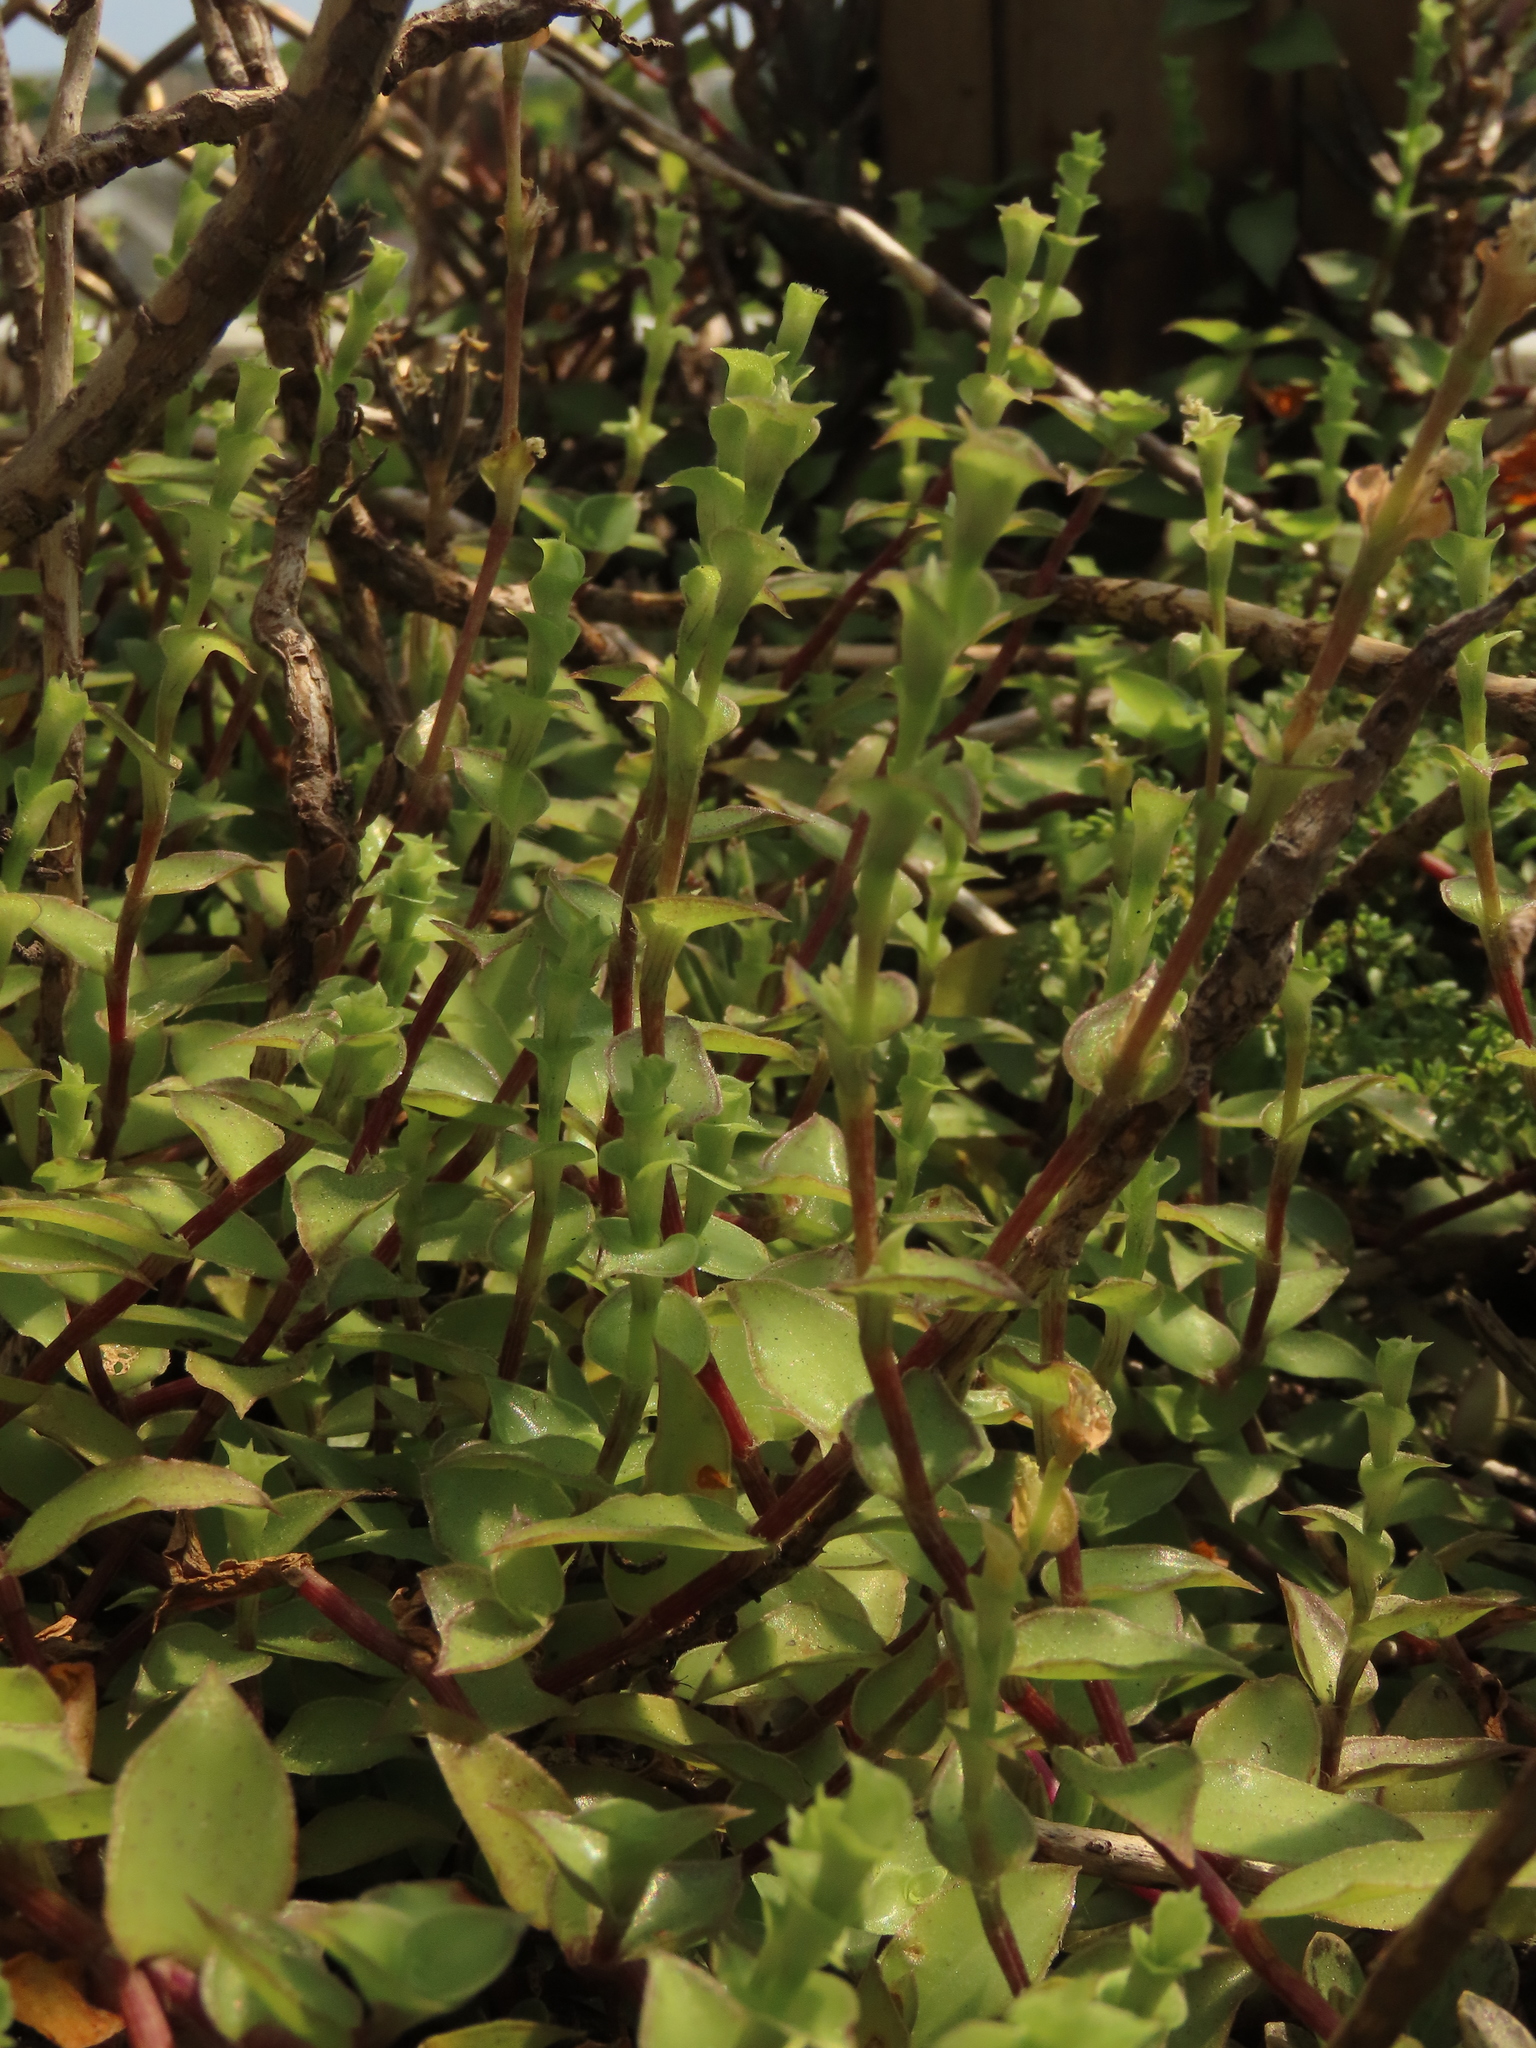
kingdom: Plantae
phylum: Tracheophyta
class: Liliopsida
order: Commelinales
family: Commelinaceae
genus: Callisia
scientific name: Callisia repens
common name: Creeping inchplant
